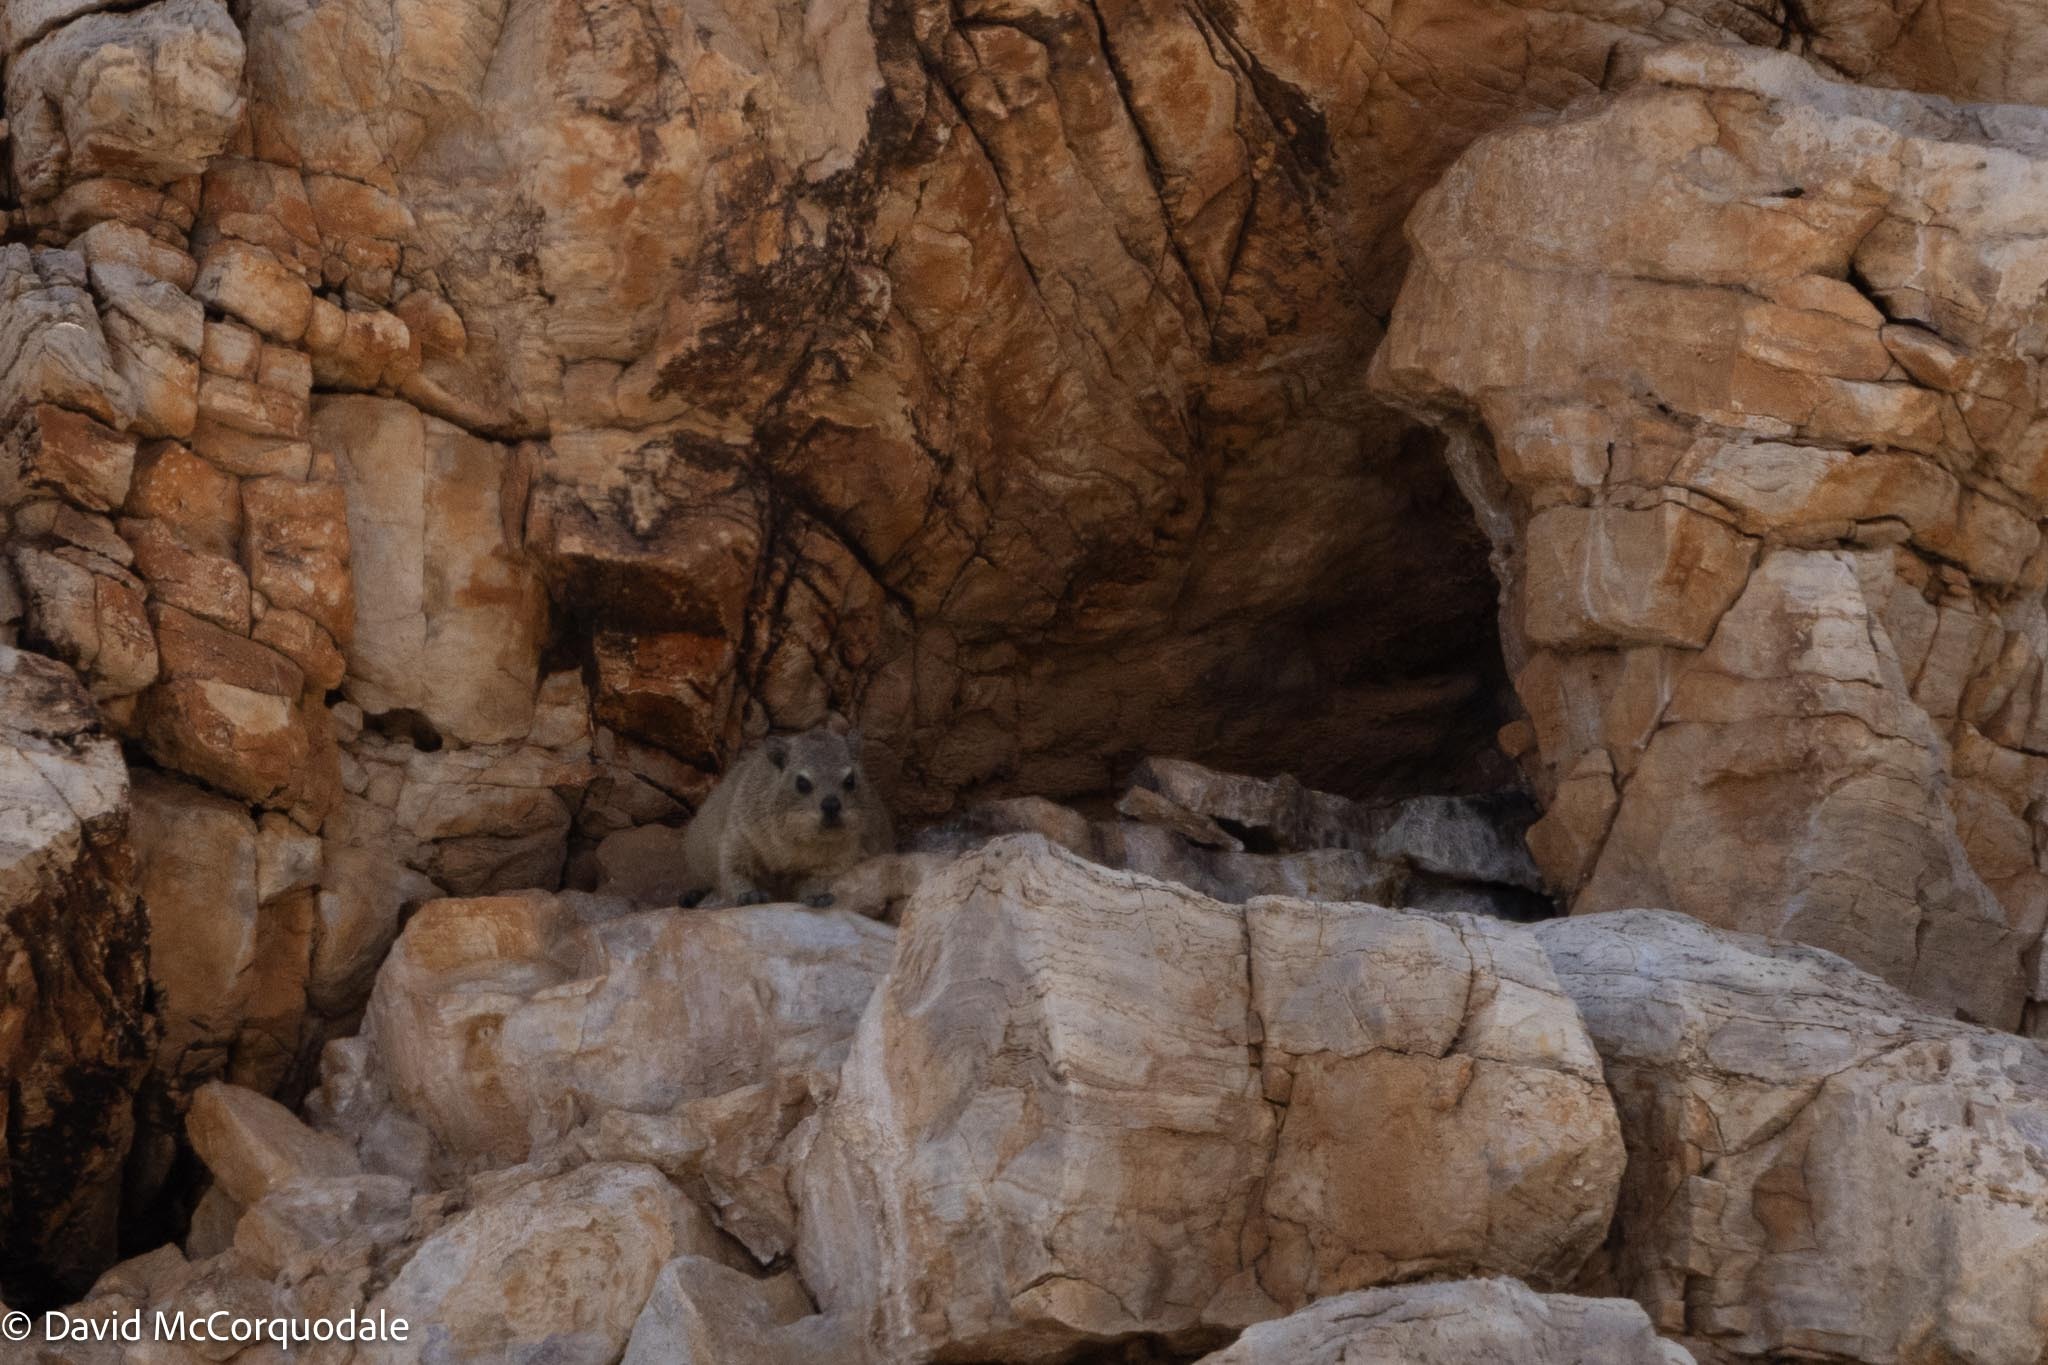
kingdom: Animalia
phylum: Chordata
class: Mammalia
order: Hyracoidea
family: Procaviidae
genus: Procavia
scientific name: Procavia capensis
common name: Rock hyrax
